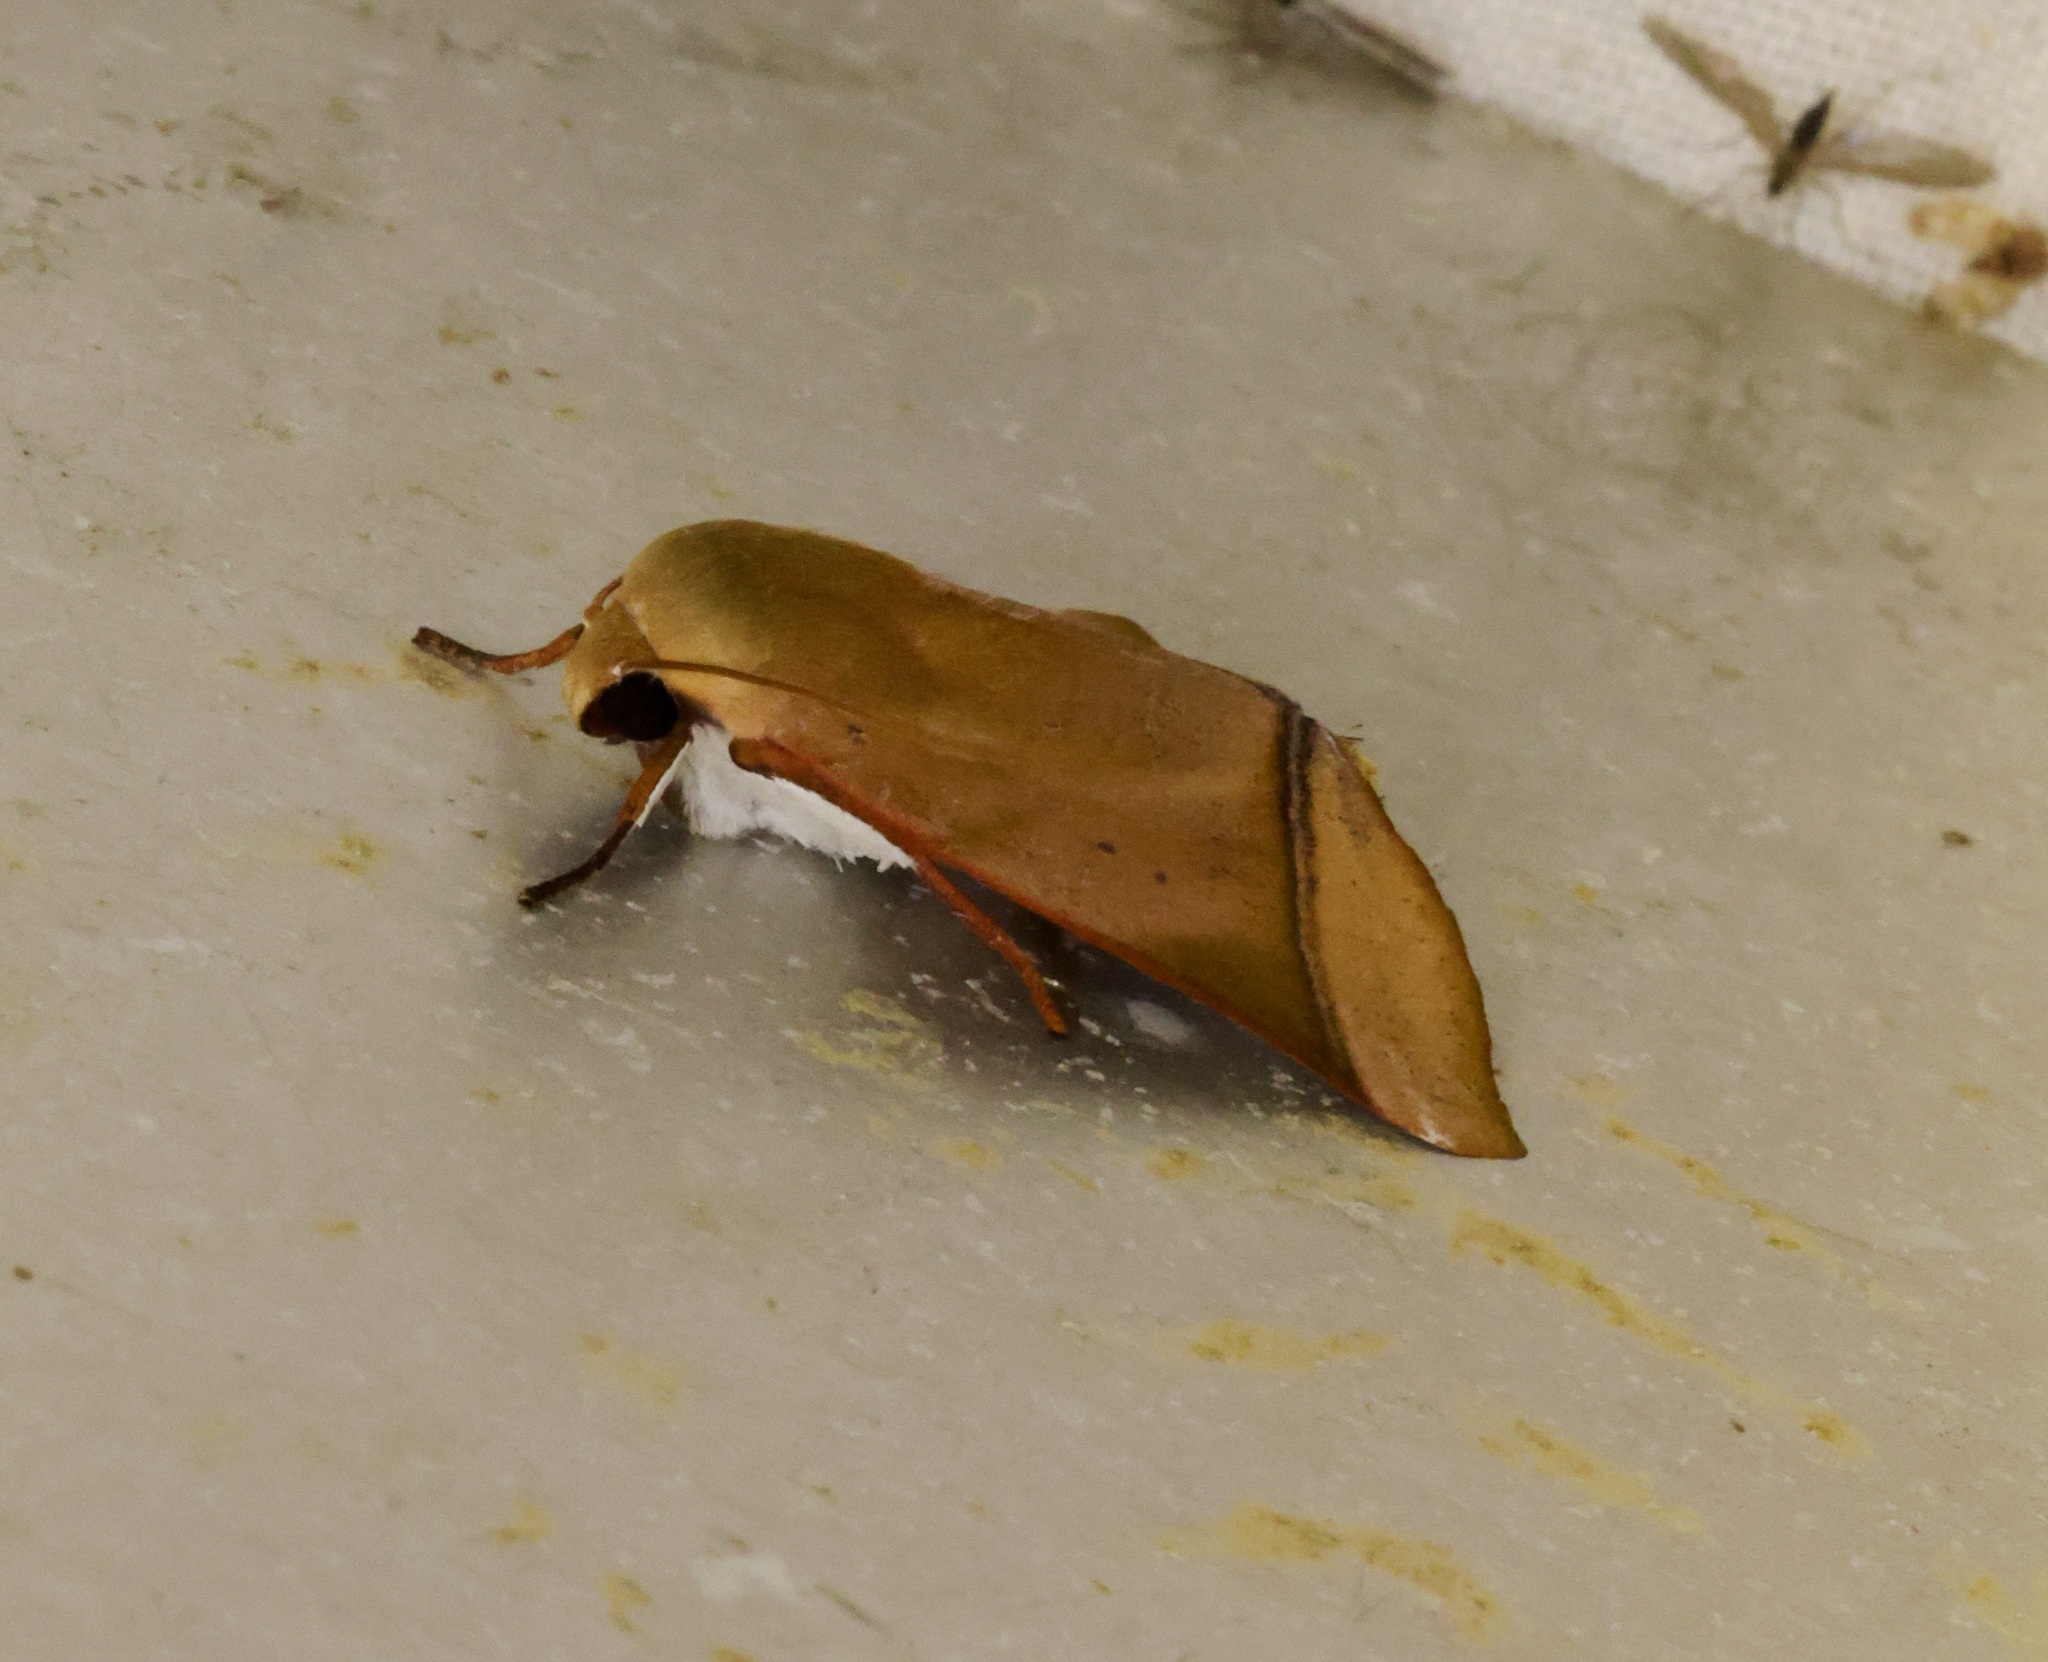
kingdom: Animalia
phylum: Arthropoda
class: Insecta
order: Lepidoptera
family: Nolidae
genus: Carea
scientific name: Carea varipes
